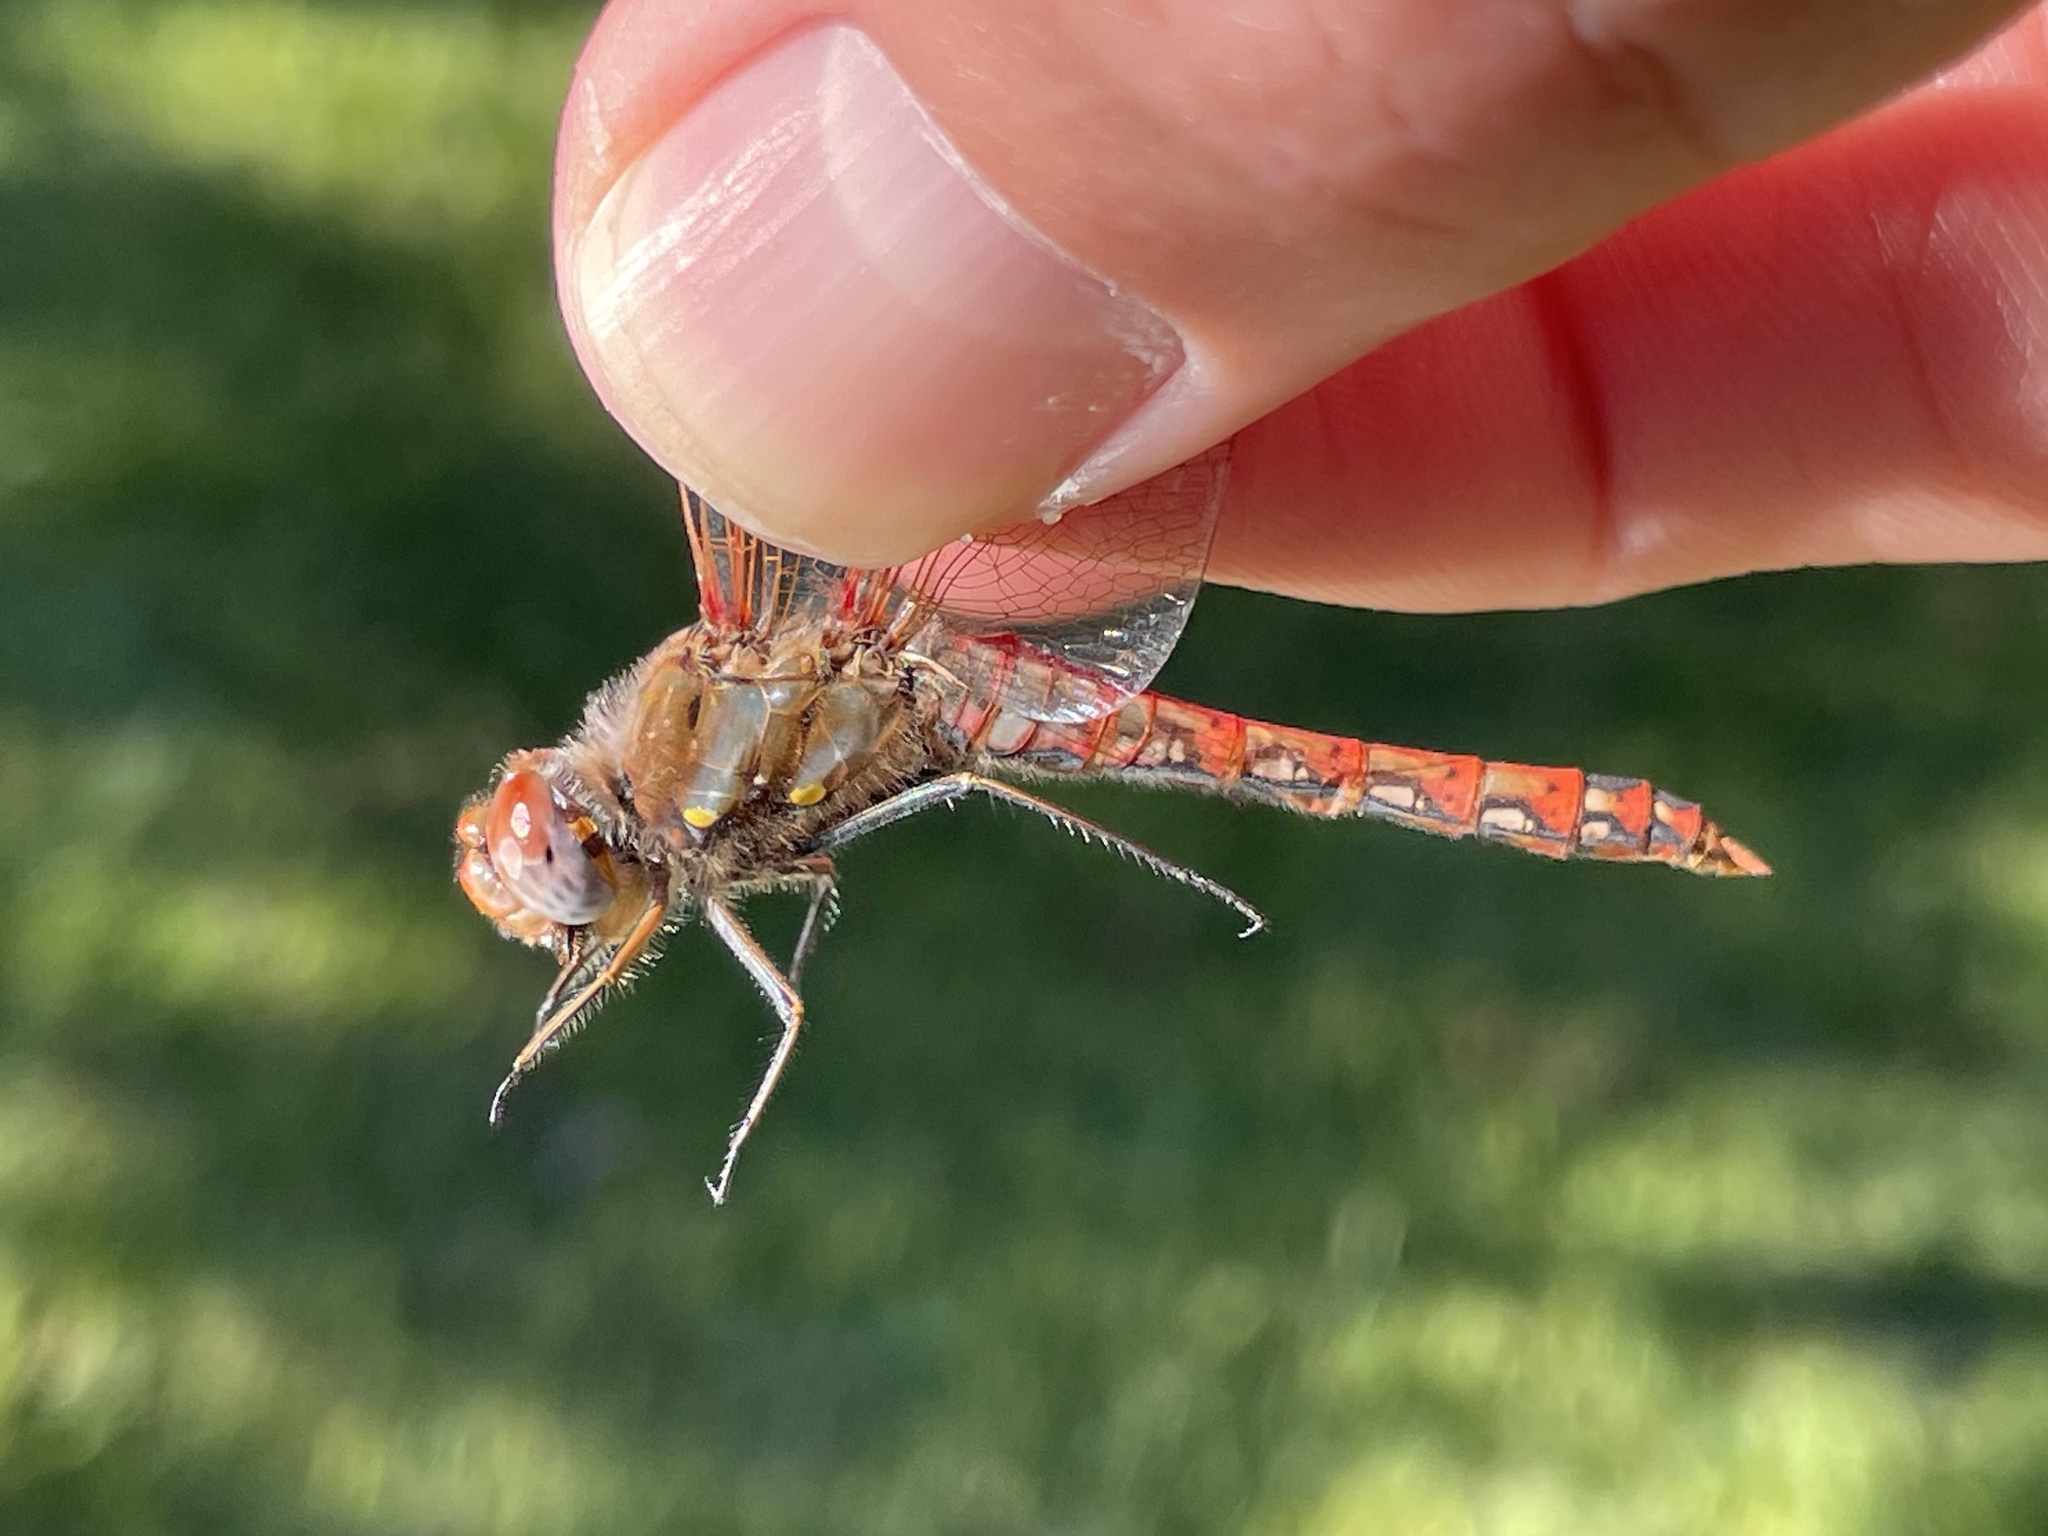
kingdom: Animalia
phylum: Arthropoda
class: Insecta
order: Odonata
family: Libellulidae
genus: Sympetrum
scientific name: Sympetrum corruptum
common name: Variegated meadowhawk
